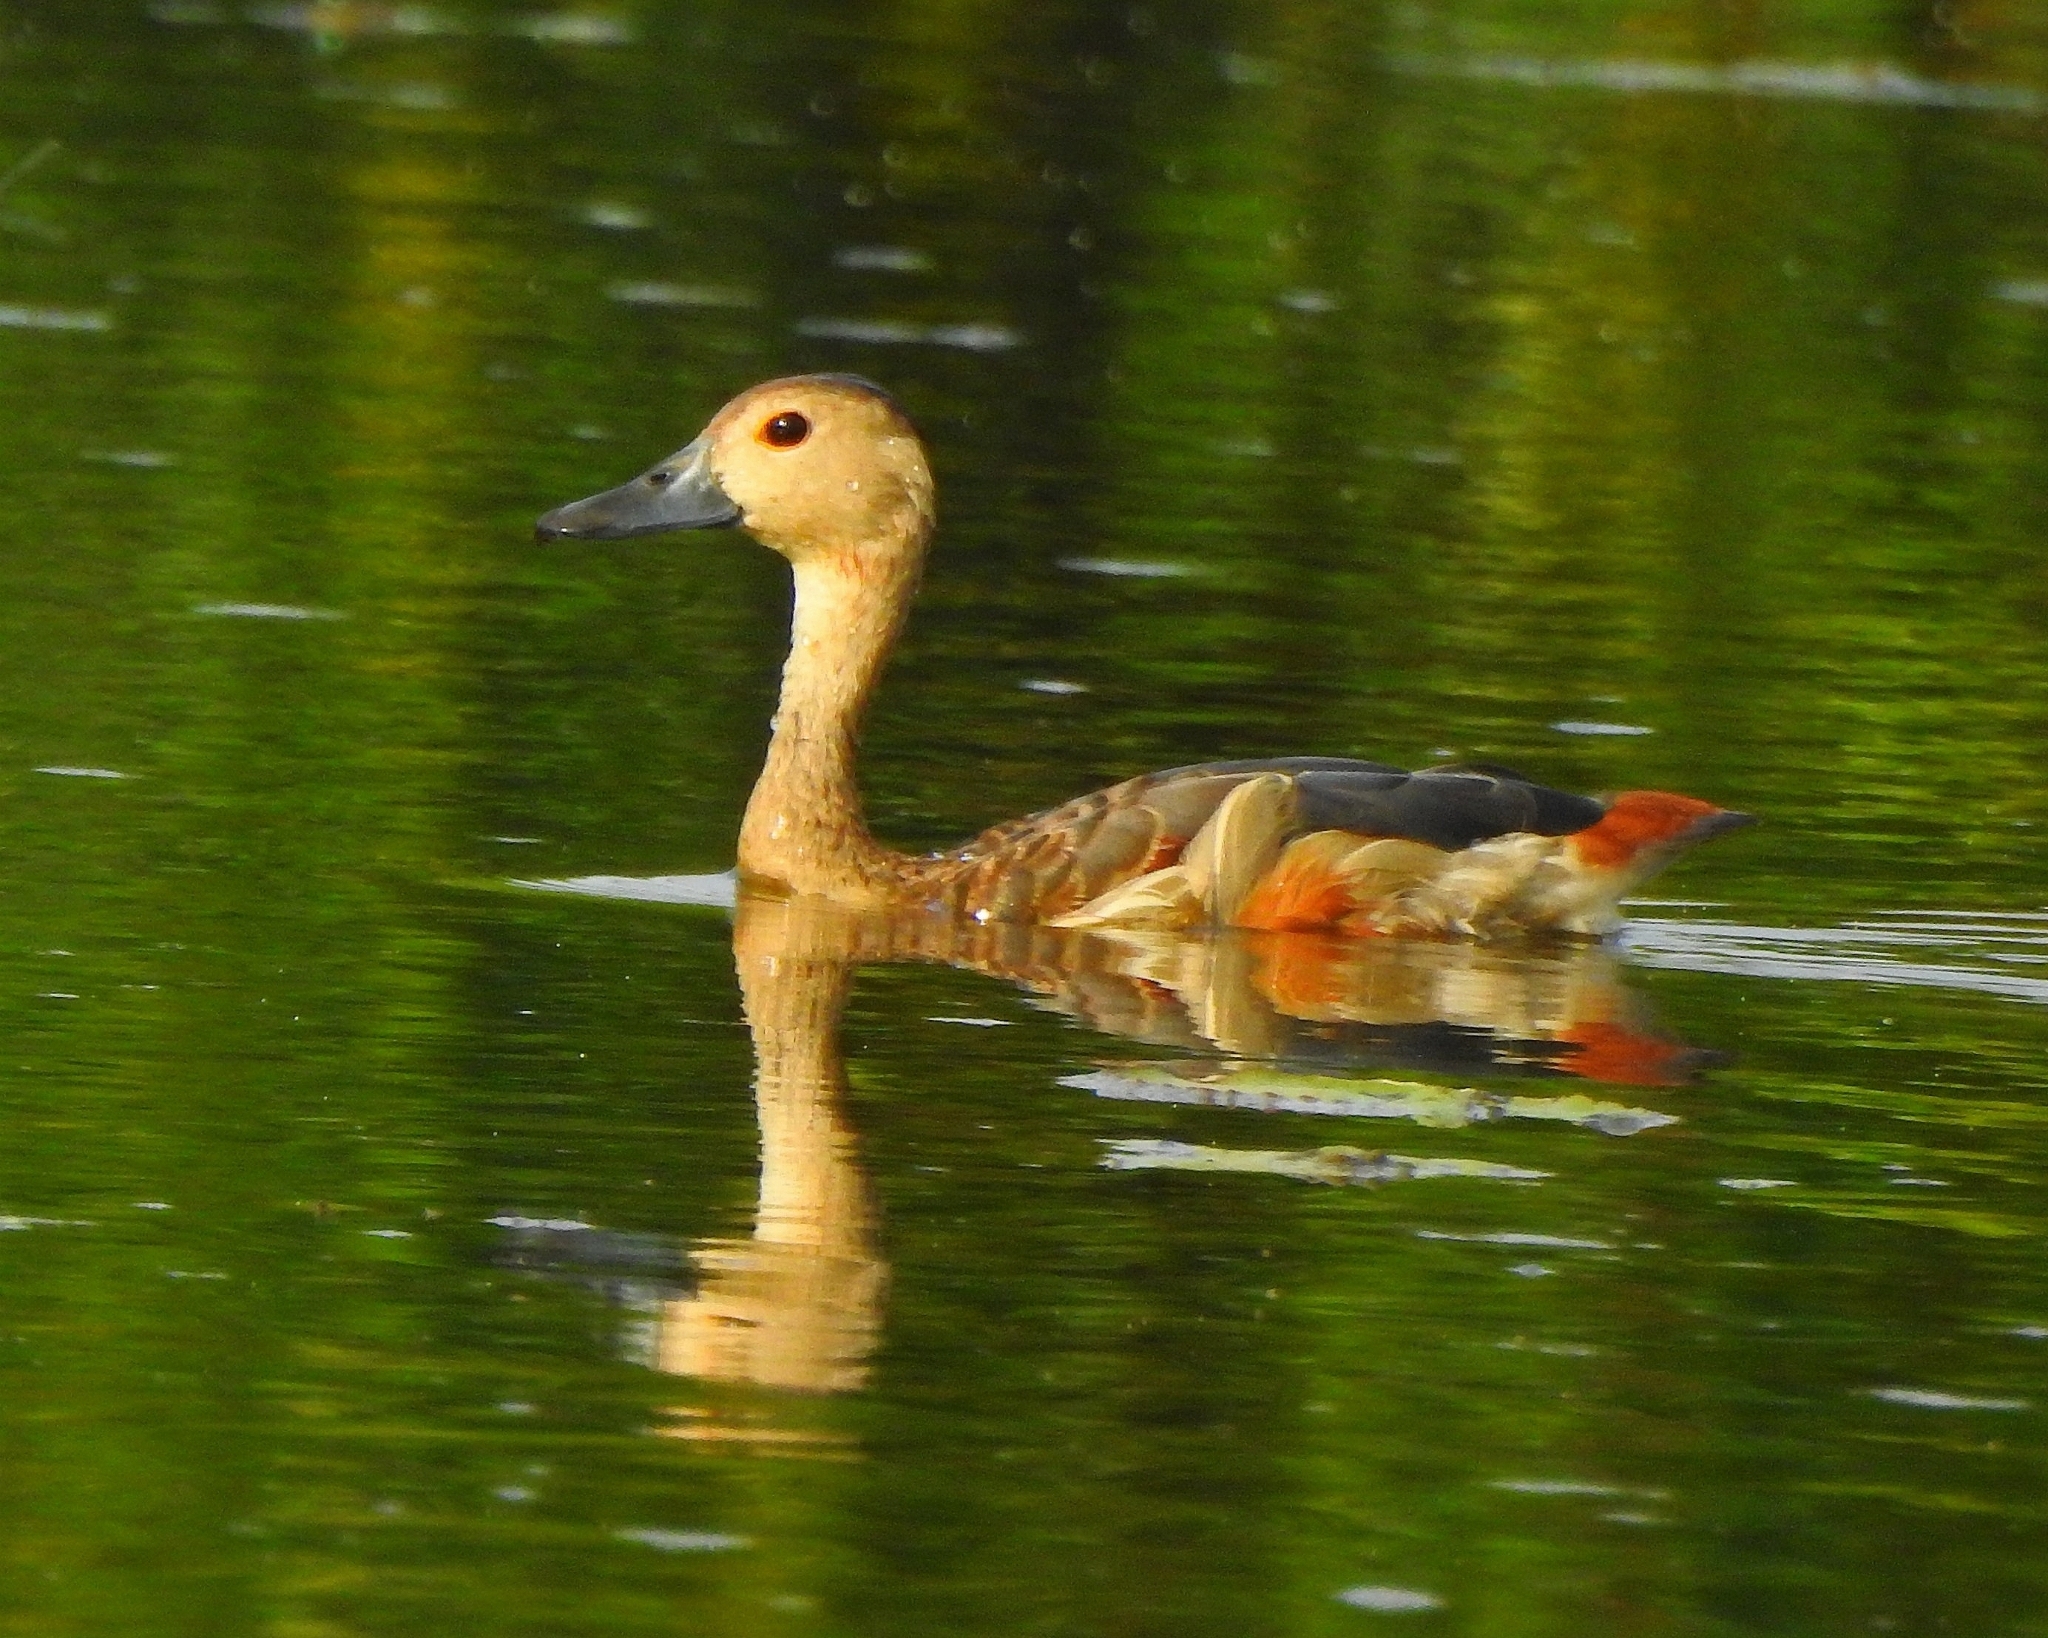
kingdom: Animalia
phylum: Chordata
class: Aves
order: Anseriformes
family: Anatidae
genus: Dendrocygna
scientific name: Dendrocygna javanica
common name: Lesser whistling-duck
